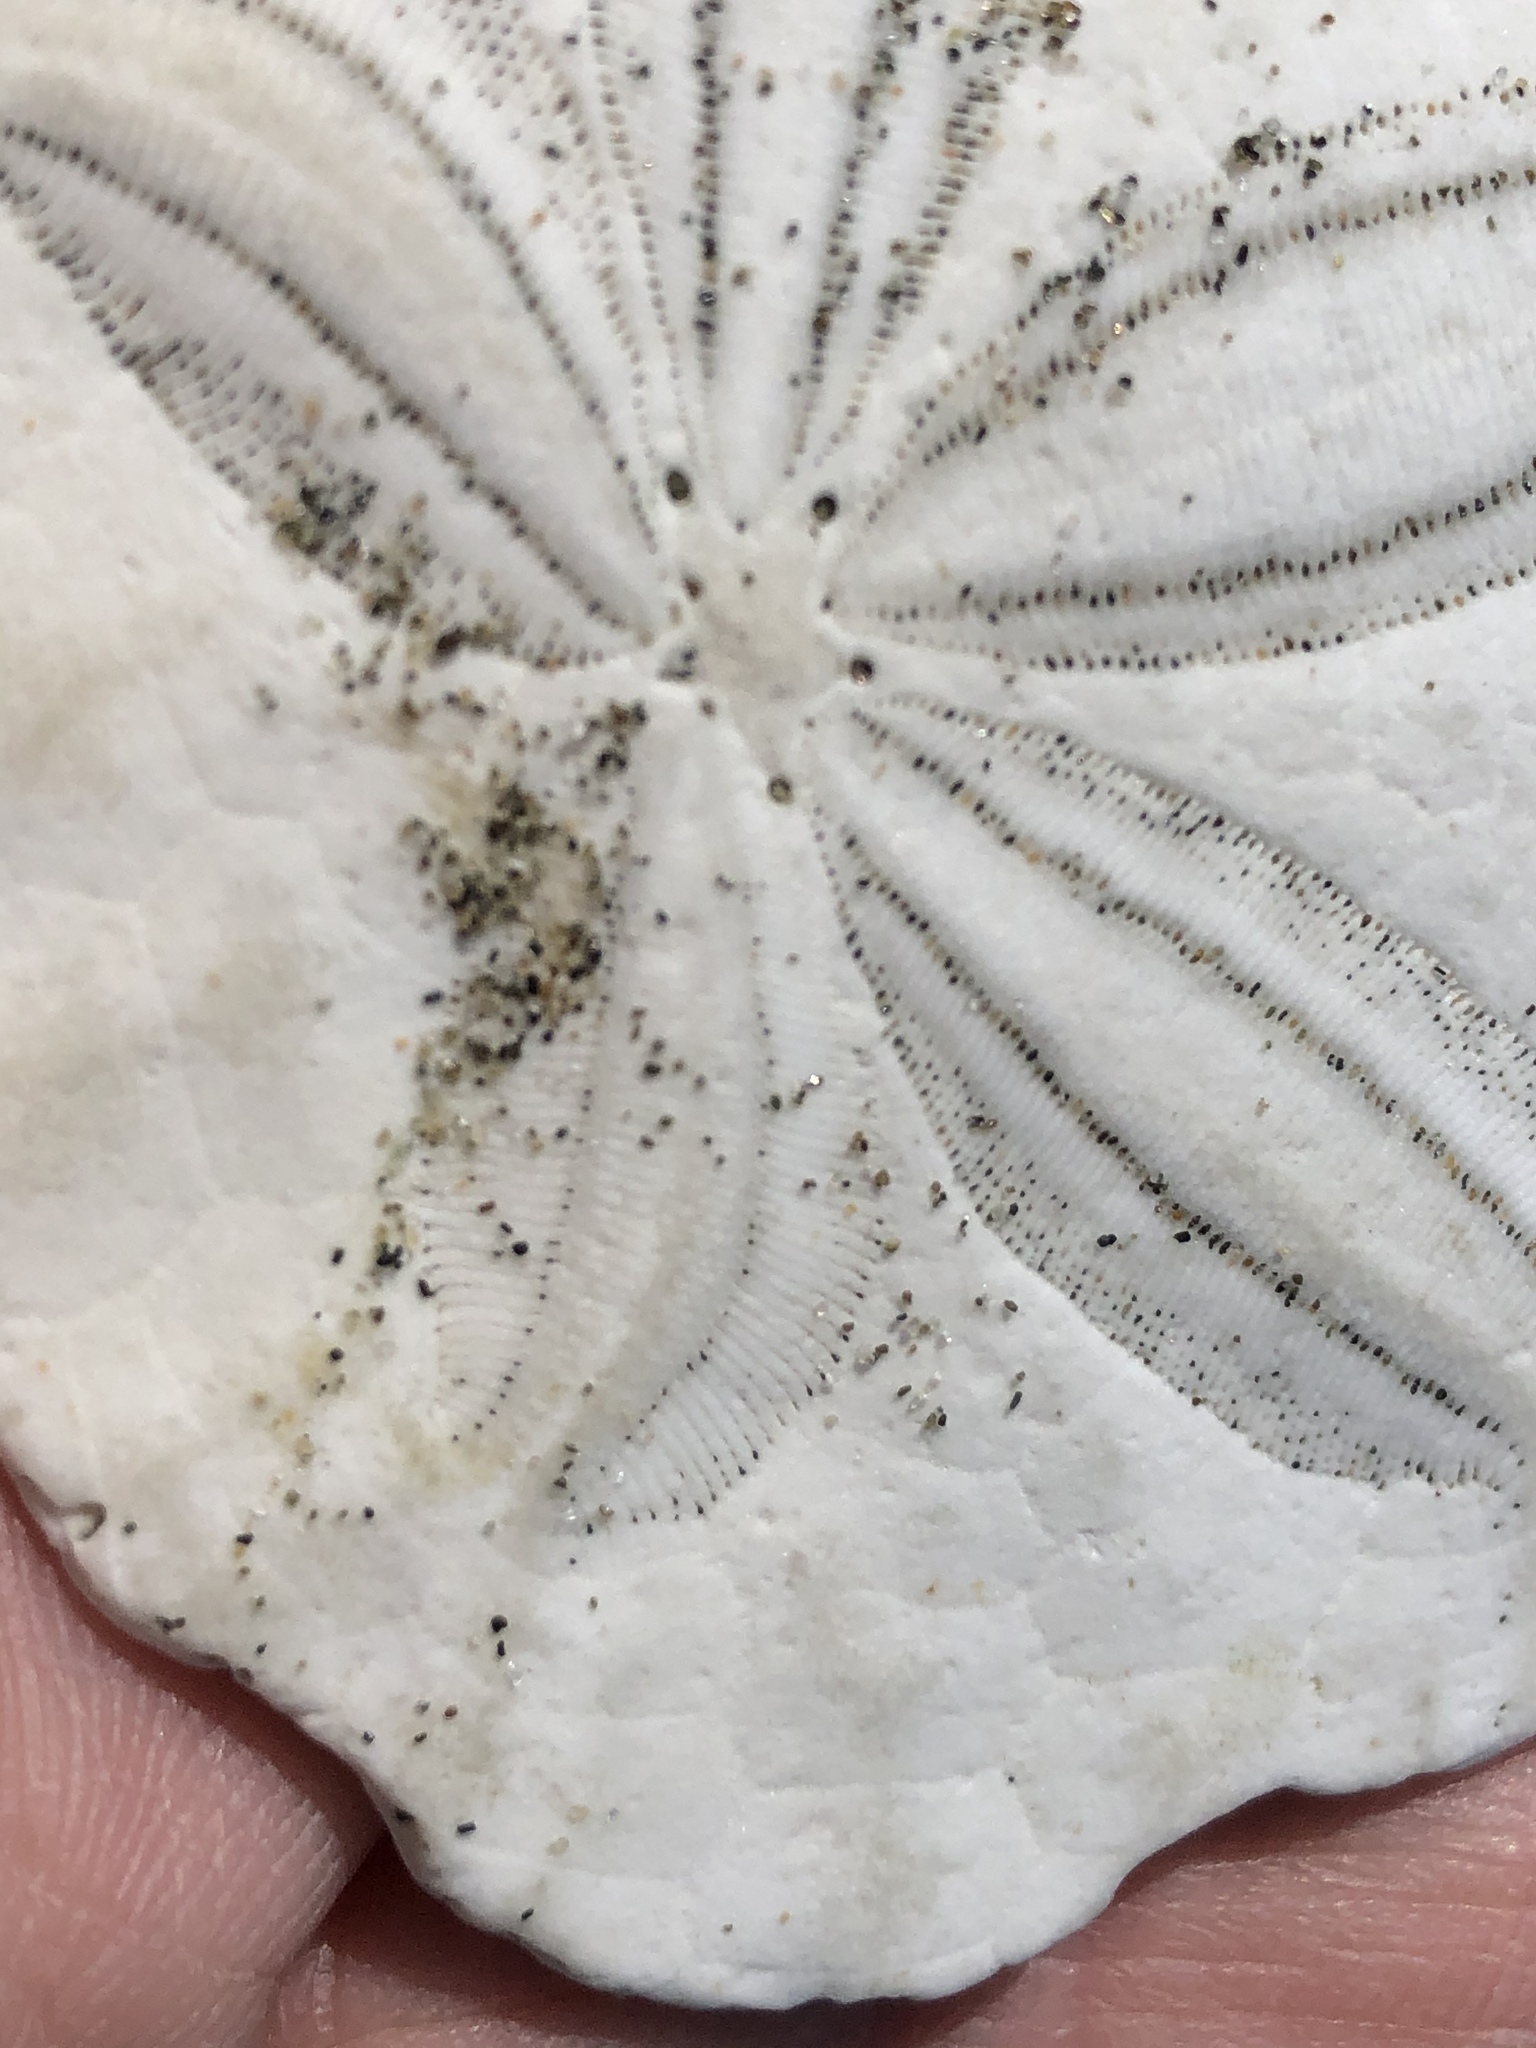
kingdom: Animalia
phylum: Echinodermata
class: Echinoidea
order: Echinolampadacea
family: Dendrasteridae
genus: Dendraster
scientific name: Dendraster excentricus
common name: Eccentric sand dollar sea urchin
